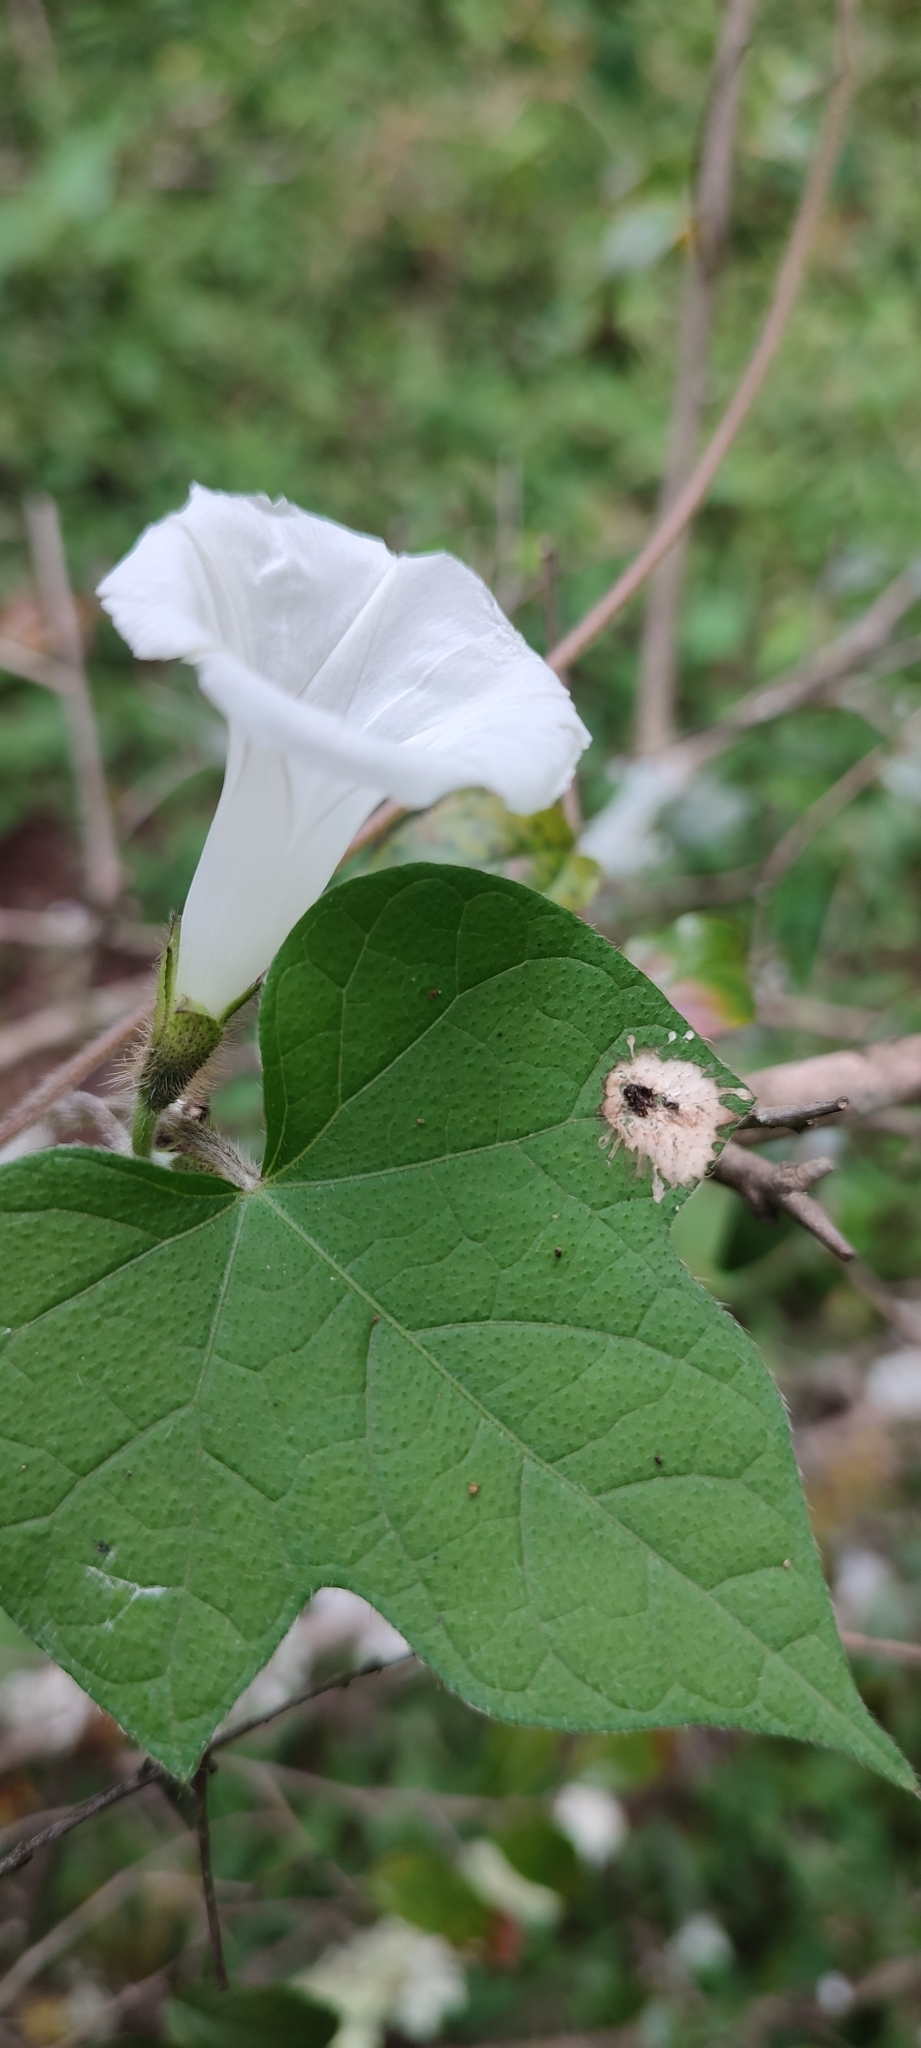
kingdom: Plantae
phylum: Tracheophyta
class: Magnoliopsida
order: Solanales
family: Convolvulaceae
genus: Ipomoea
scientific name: Ipomoea purpurea
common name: Common morning-glory
